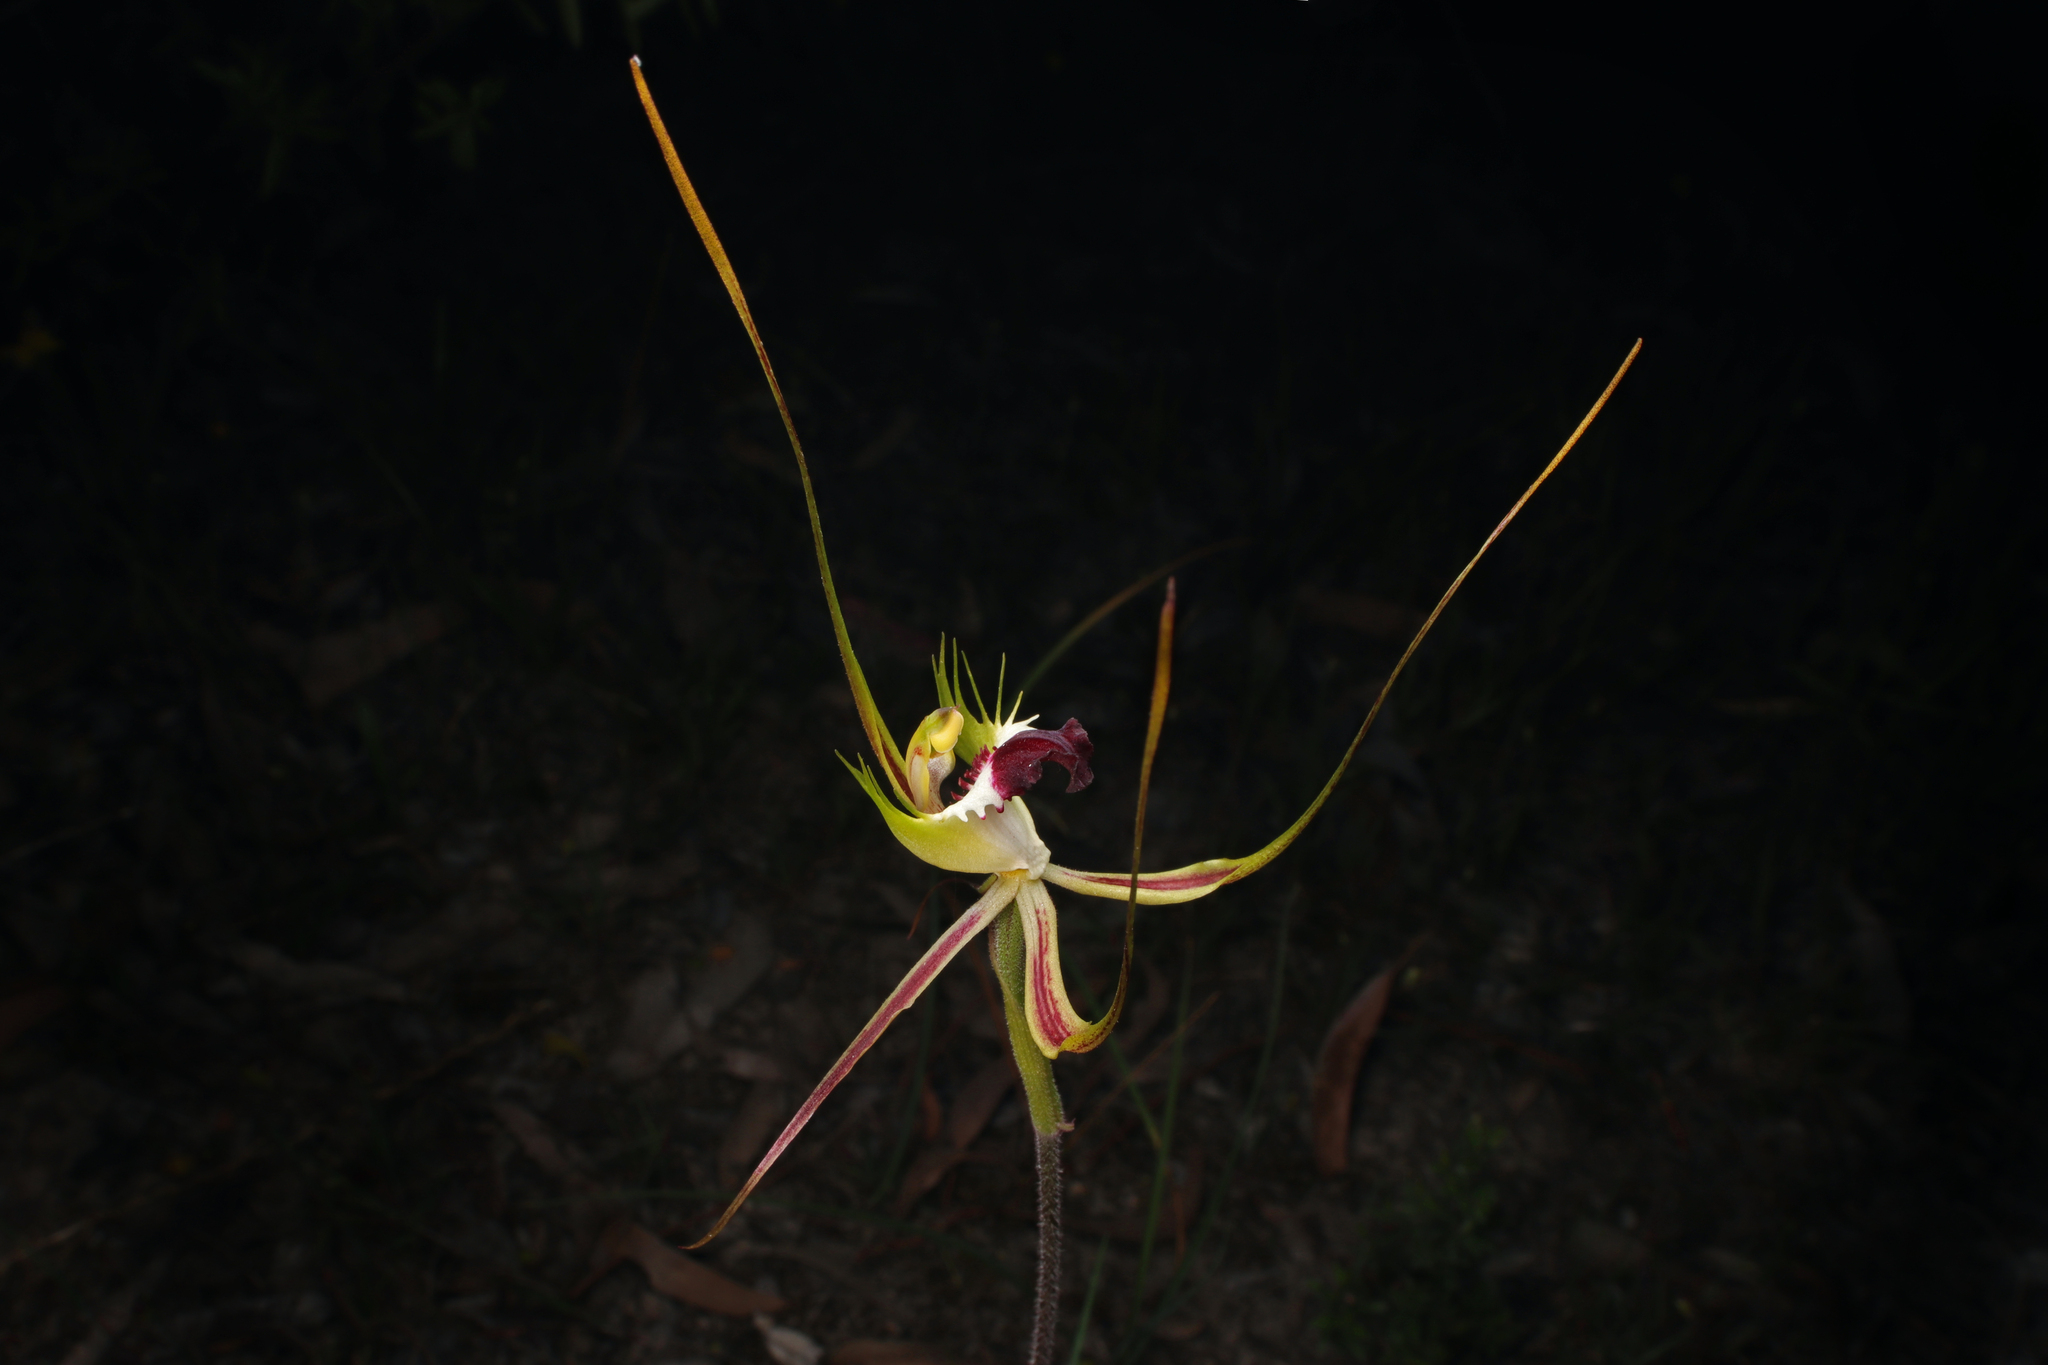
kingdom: Plantae
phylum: Tracheophyta
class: Liliopsida
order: Asparagales
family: Orchidaceae
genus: Caladenia
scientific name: Caladenia tentaculata
